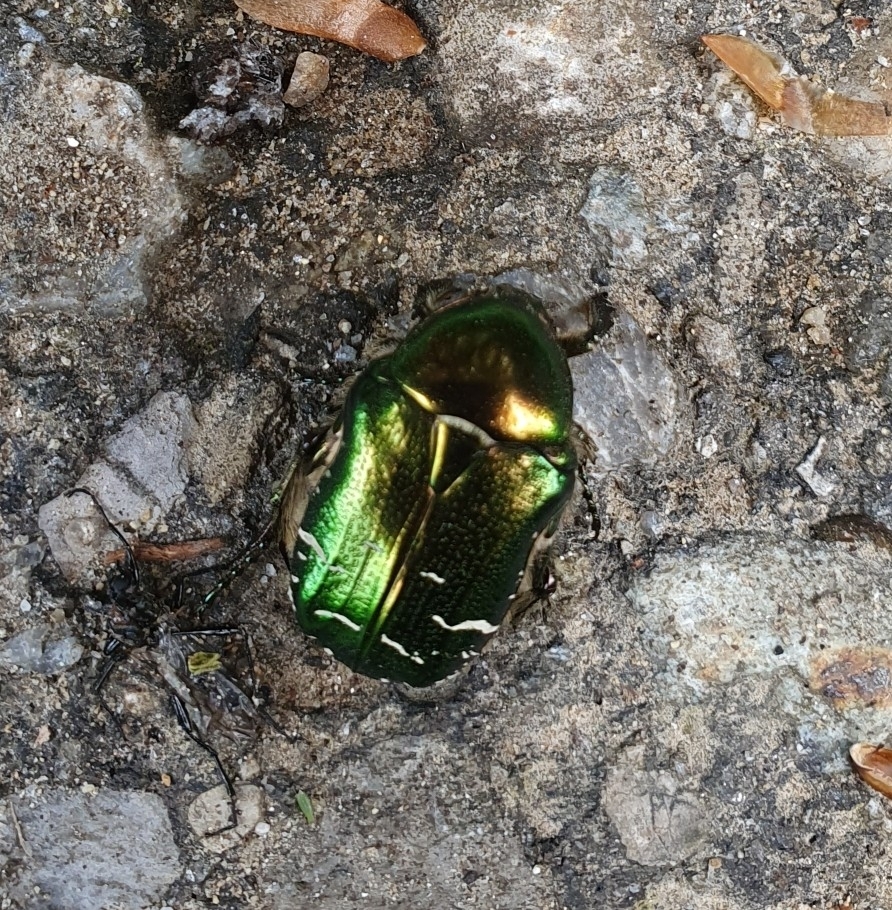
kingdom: Animalia
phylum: Arthropoda
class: Insecta
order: Coleoptera
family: Scarabaeidae
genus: Cetonia
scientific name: Cetonia aurata
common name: Rose chafer
